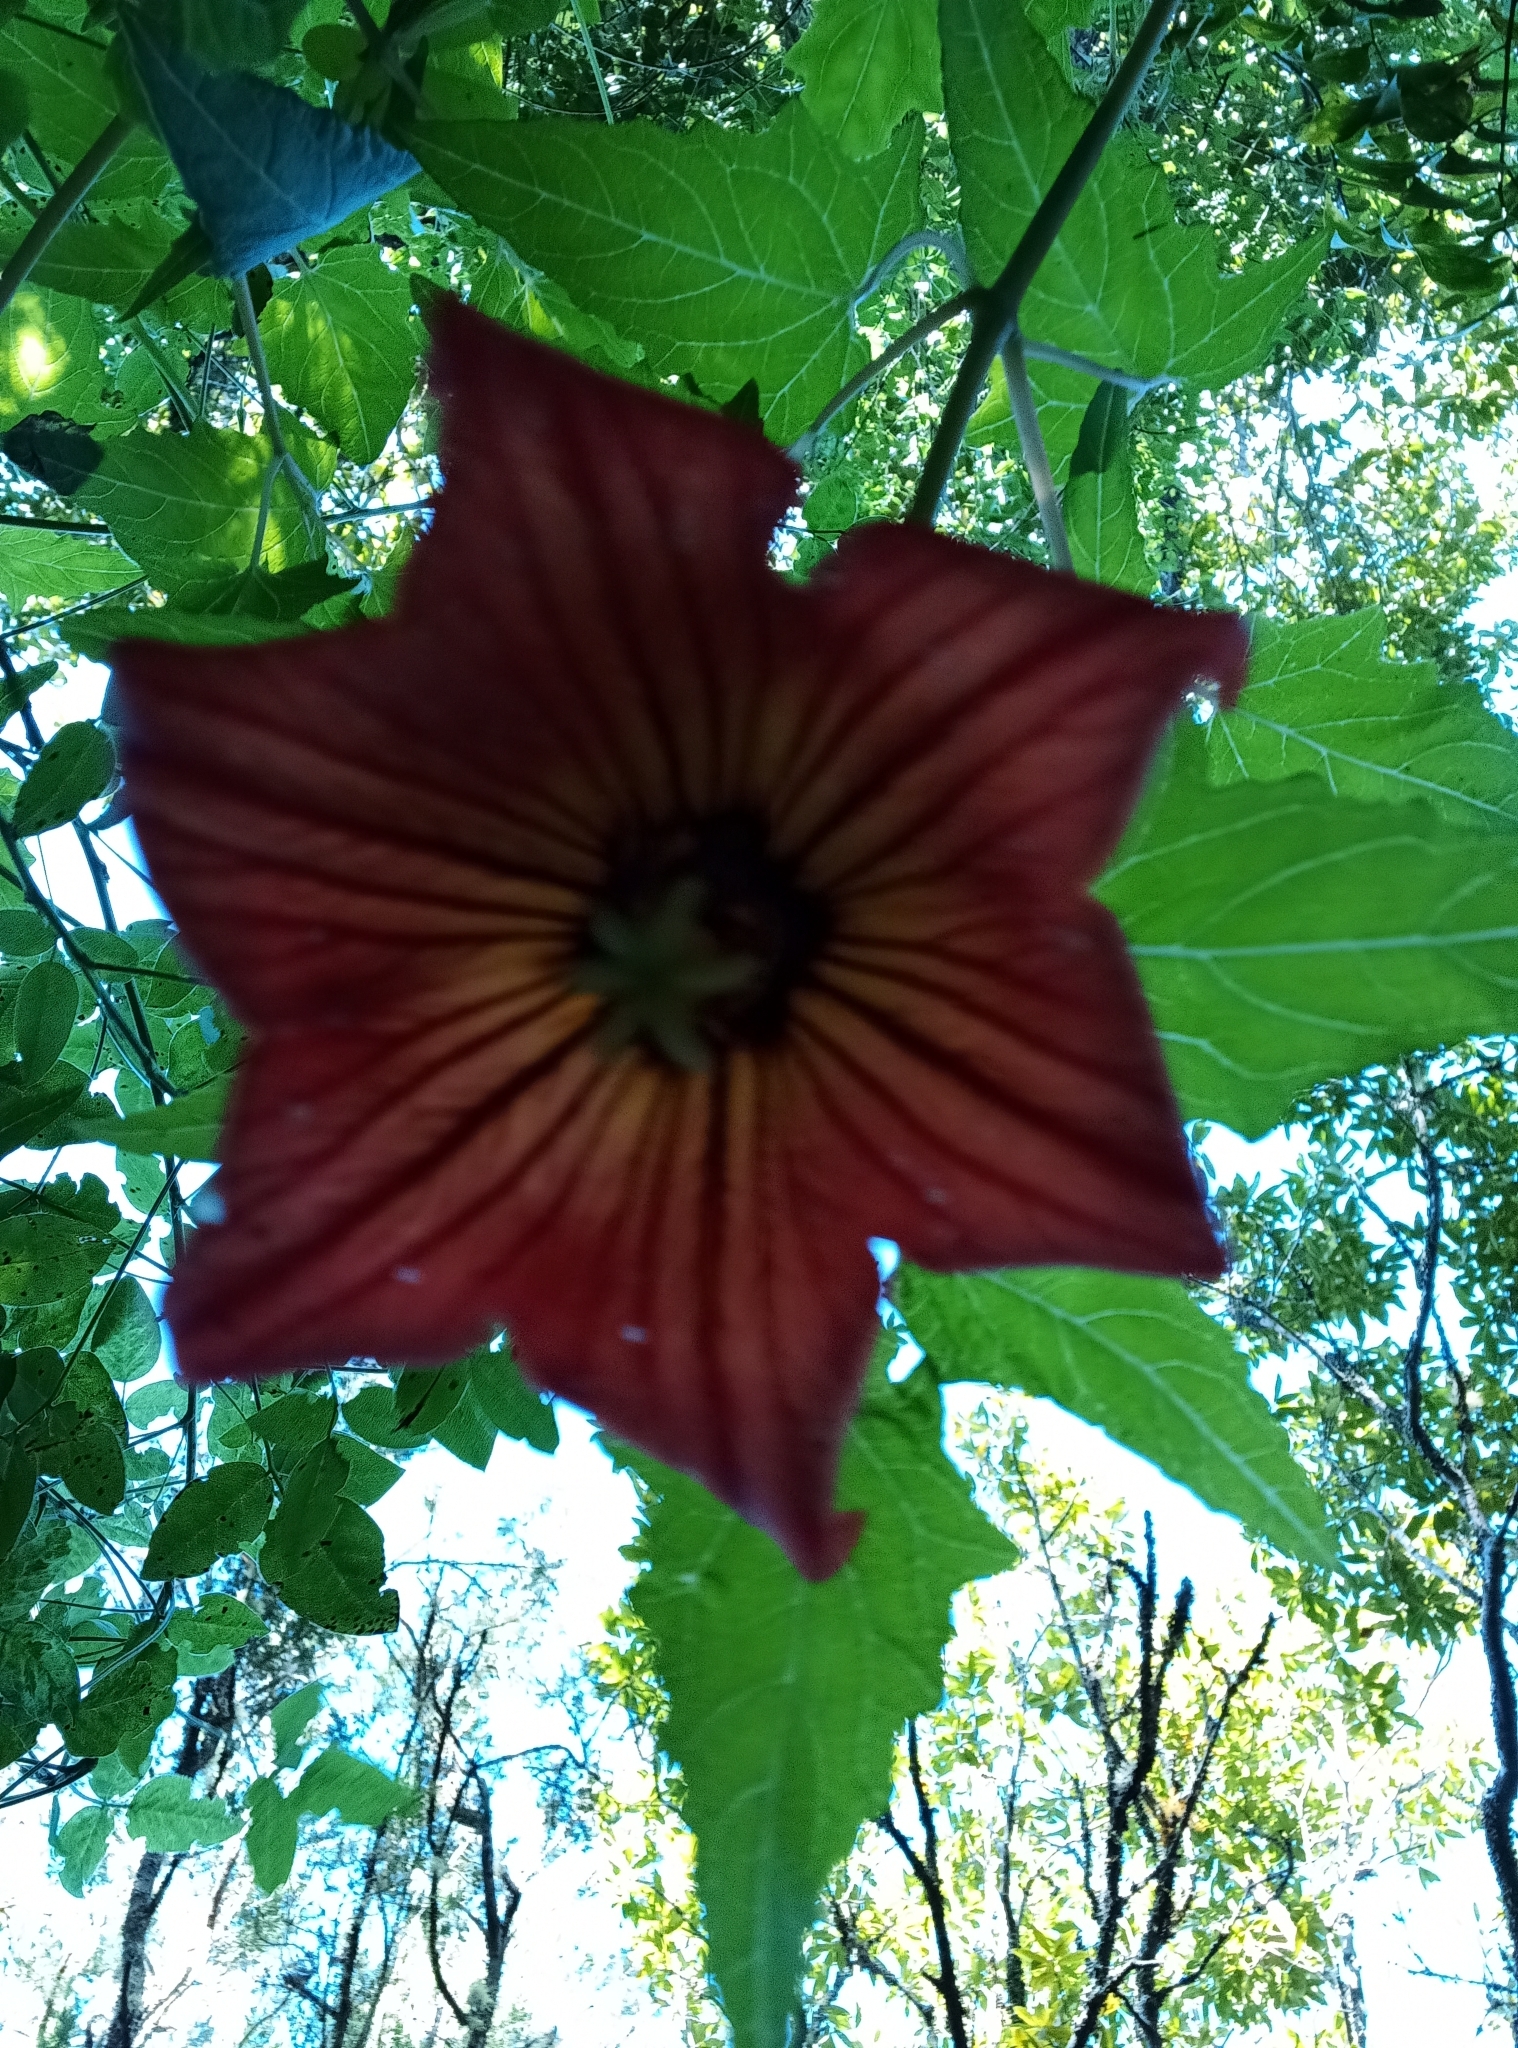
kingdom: Plantae
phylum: Tracheophyta
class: Magnoliopsida
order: Asterales
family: Campanulaceae
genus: Canarina
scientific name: Canarina canariensis
